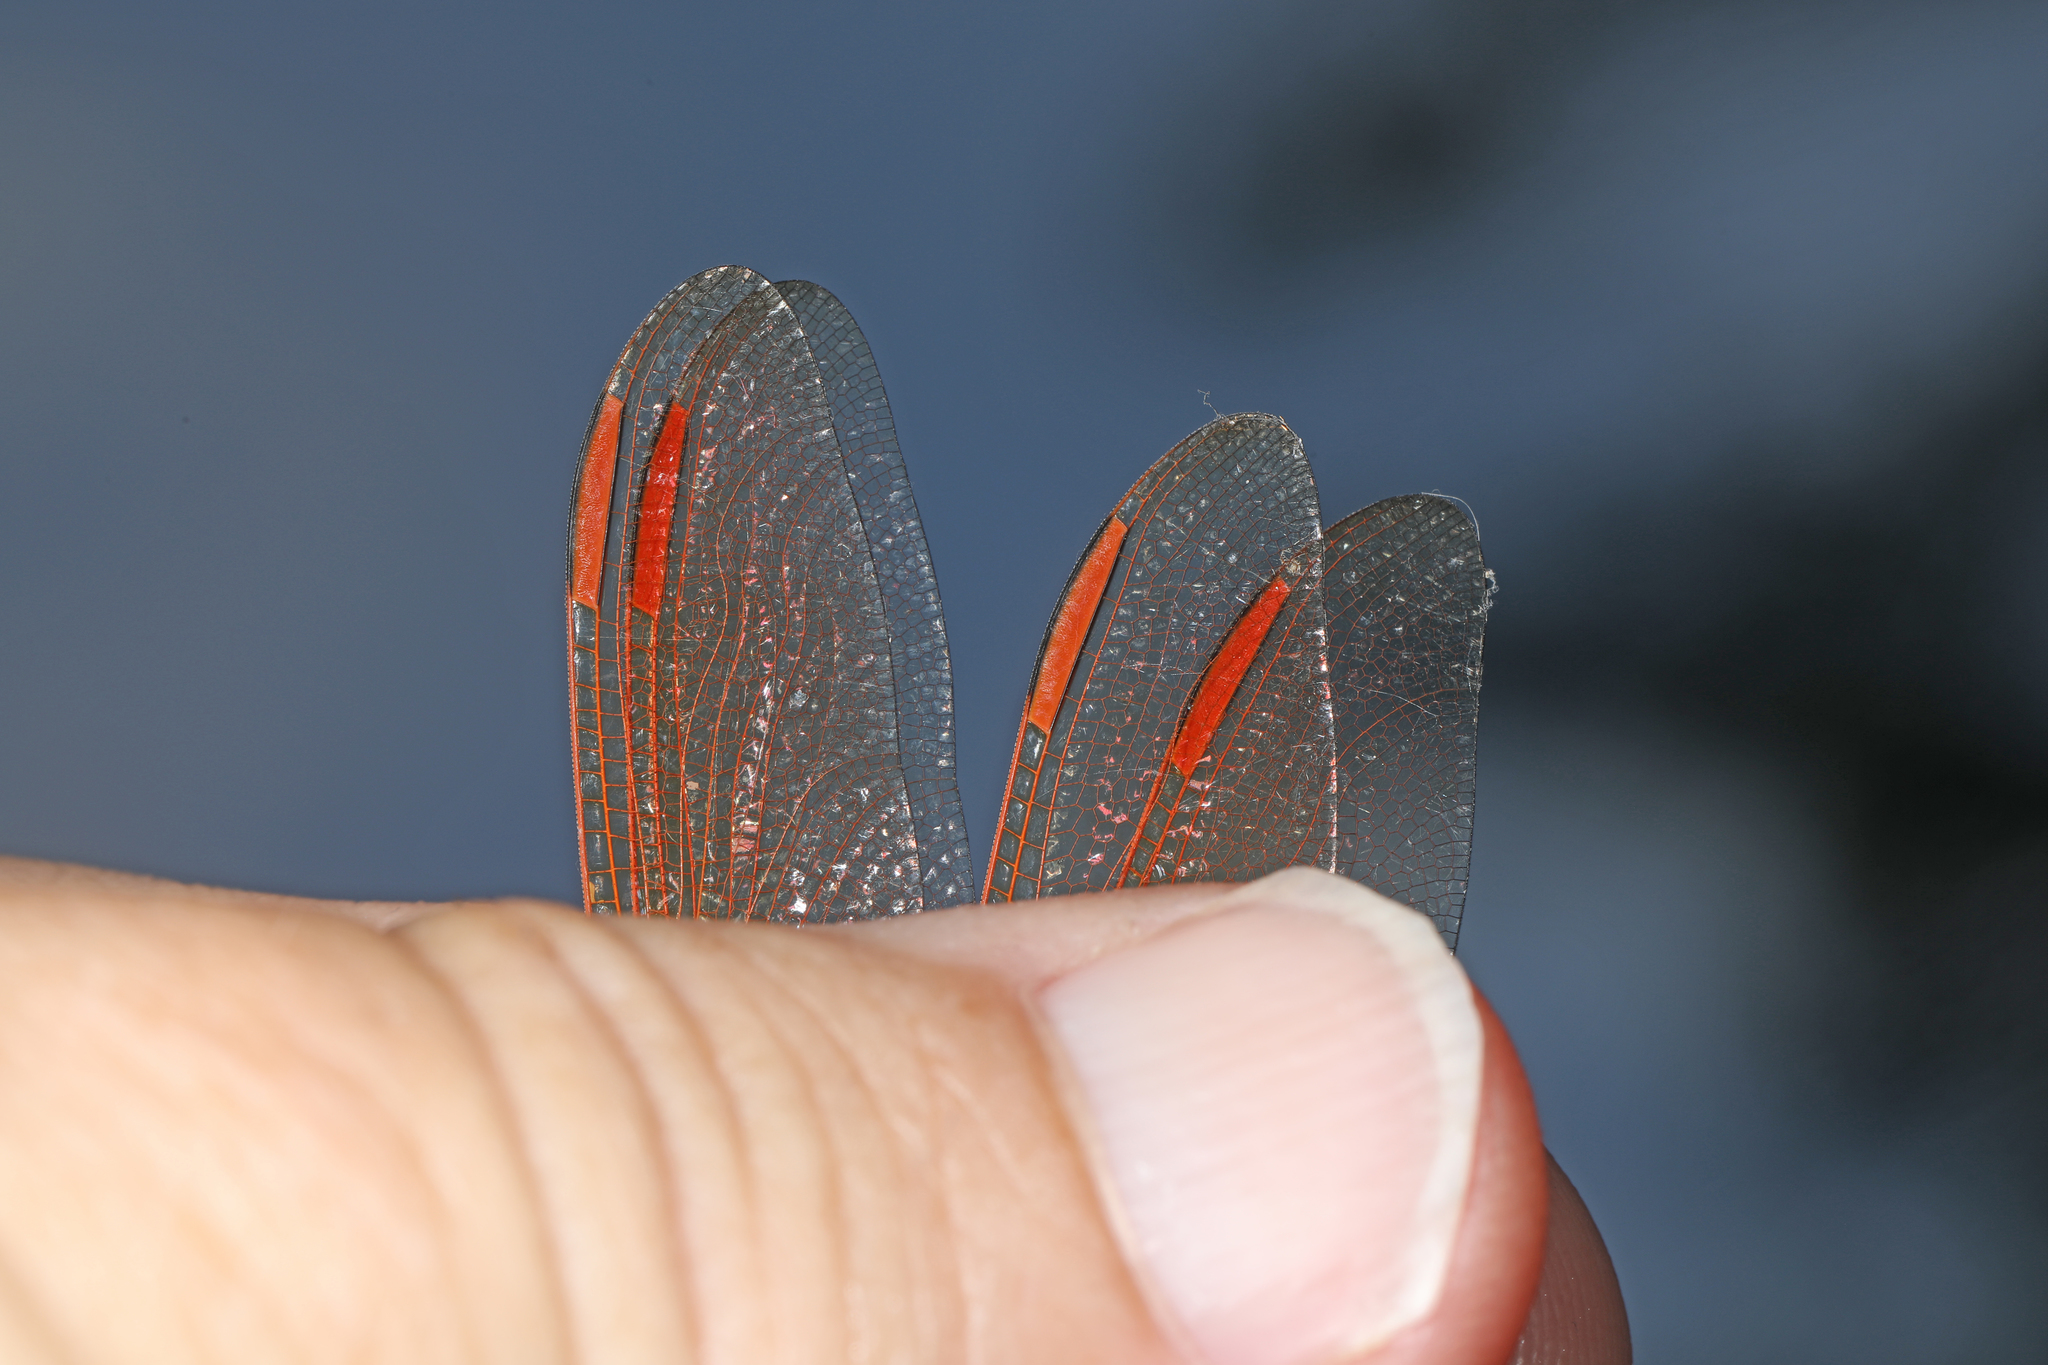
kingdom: Animalia
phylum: Arthropoda
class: Insecta
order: Odonata
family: Libellulidae
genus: Libellula
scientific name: Libellula auripennis
